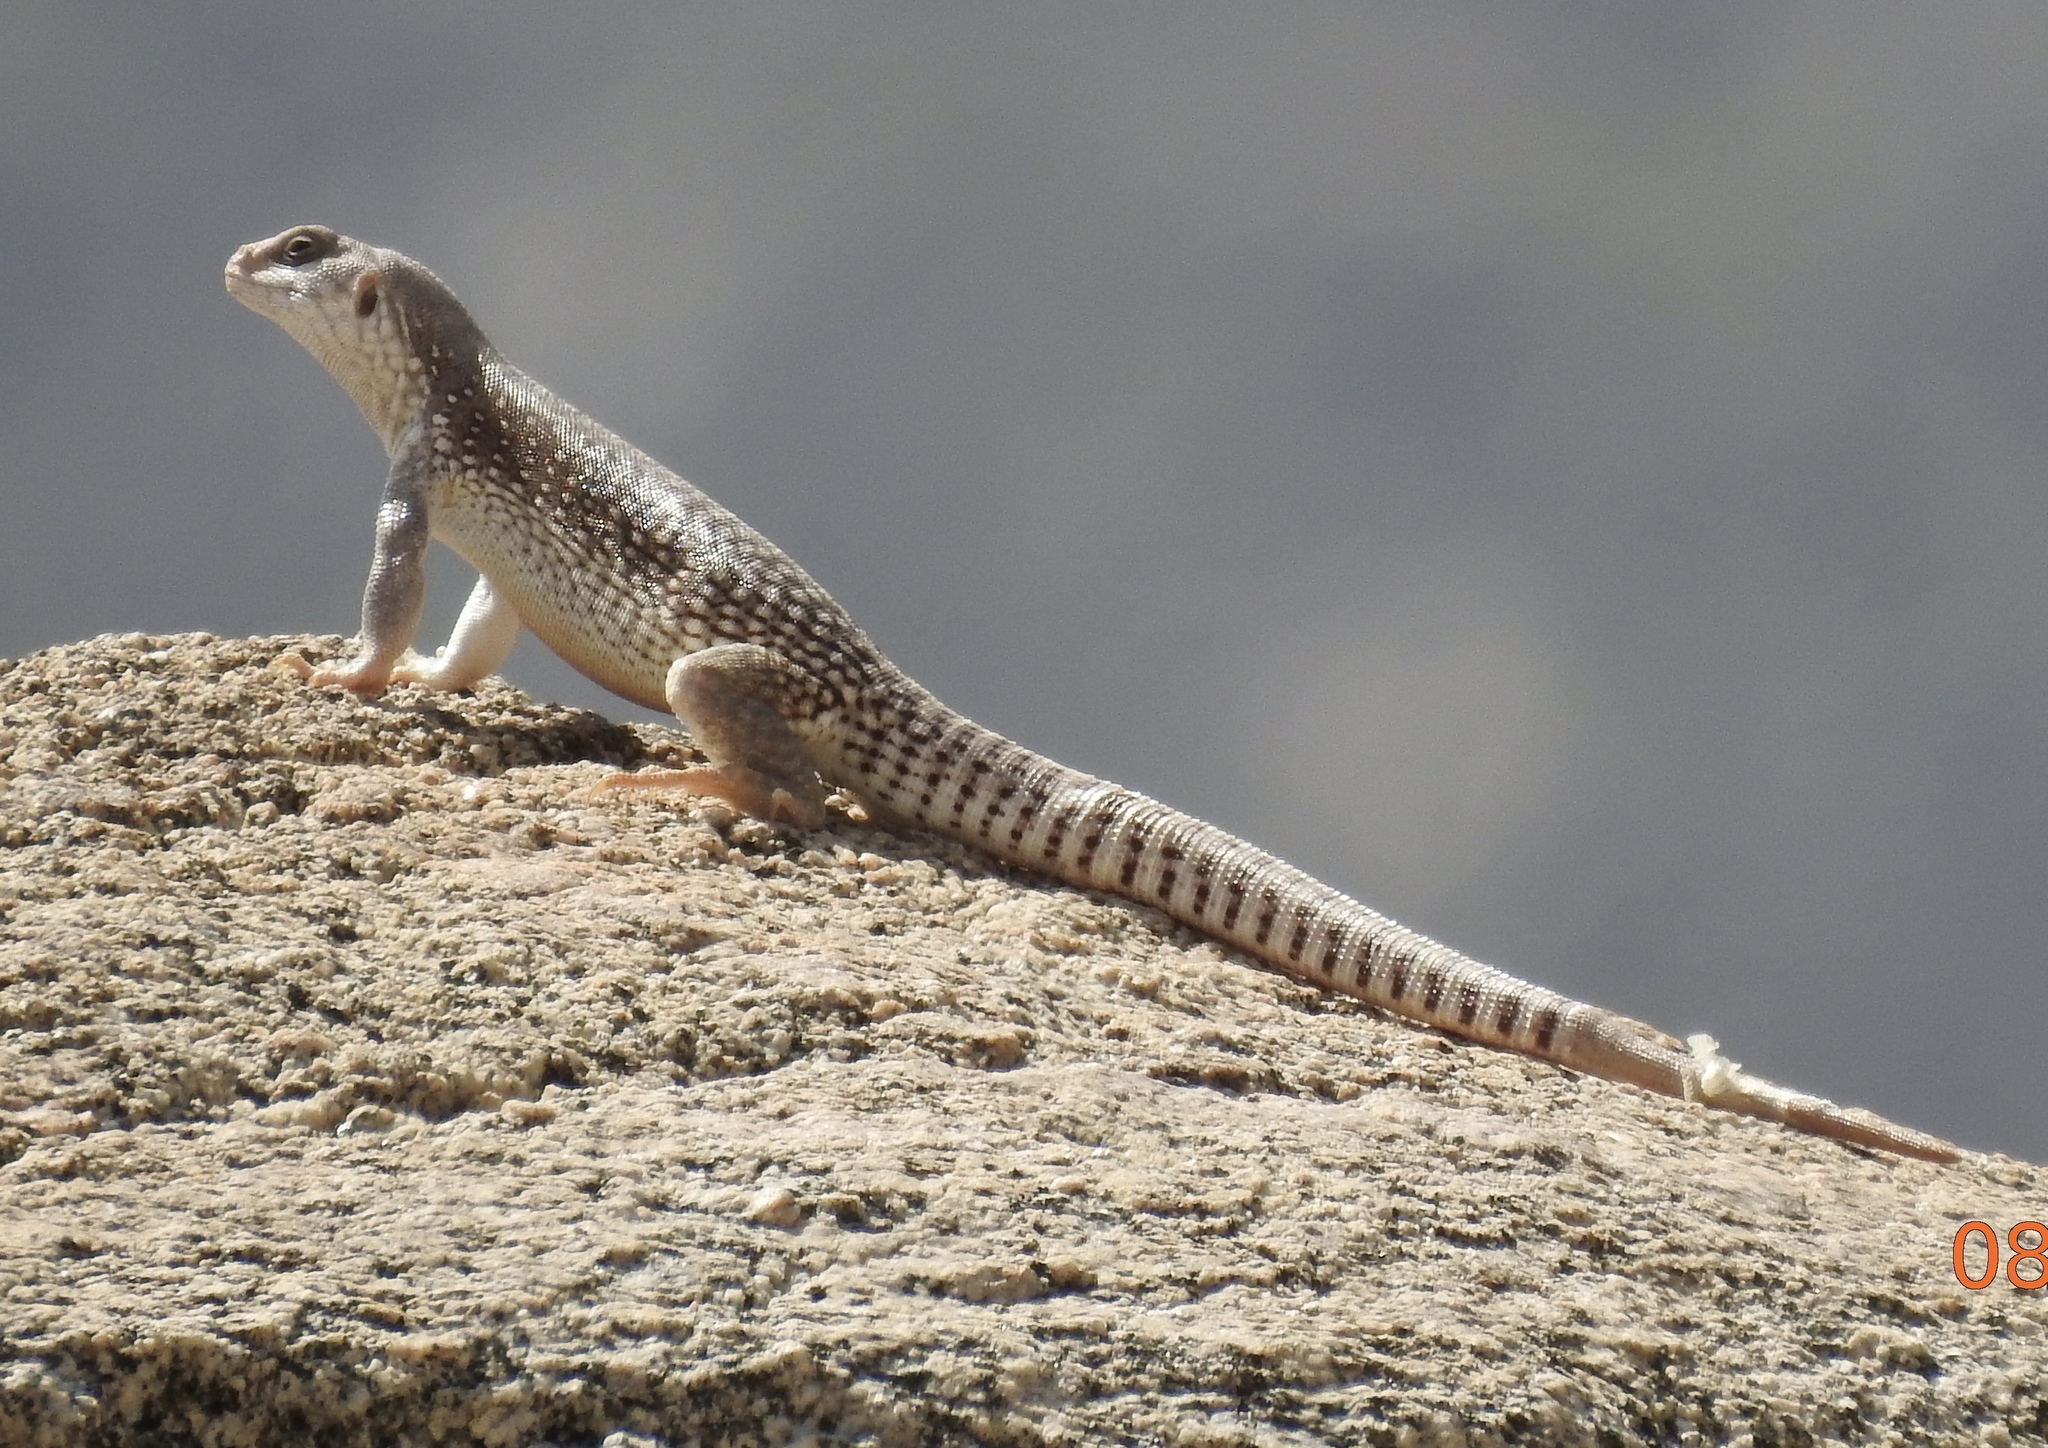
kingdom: Animalia
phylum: Chordata
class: Squamata
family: Iguanidae
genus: Dipsosaurus
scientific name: Dipsosaurus dorsalis
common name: Desert iguana
